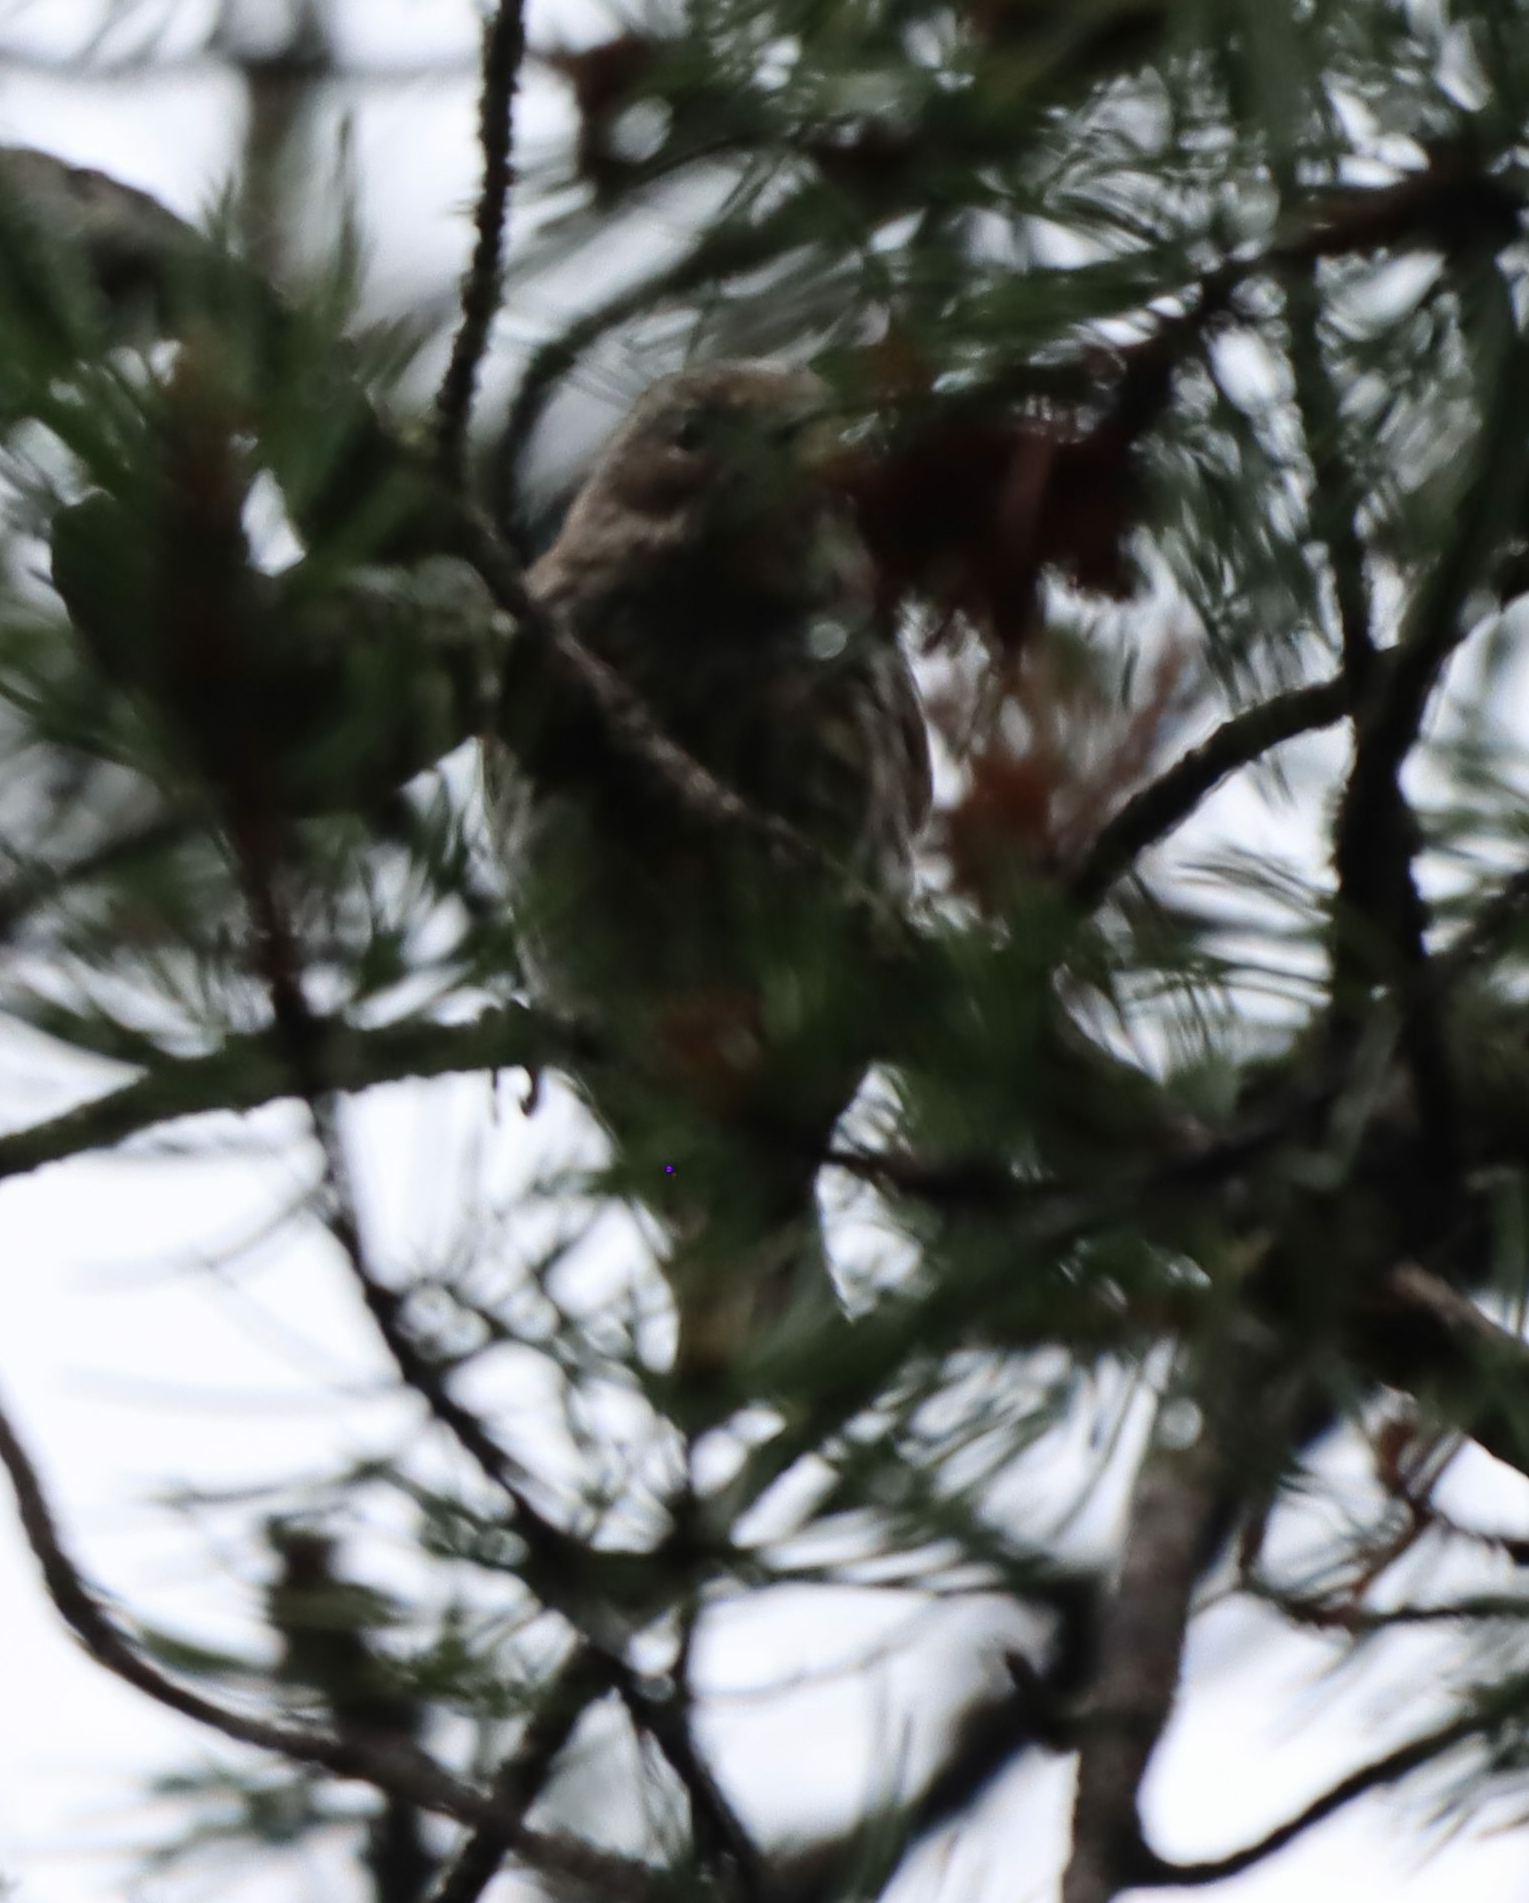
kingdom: Animalia
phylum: Chordata
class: Aves
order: Passeriformes
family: Fringillidae
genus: Spinus
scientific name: Spinus pinus
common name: Pine siskin
